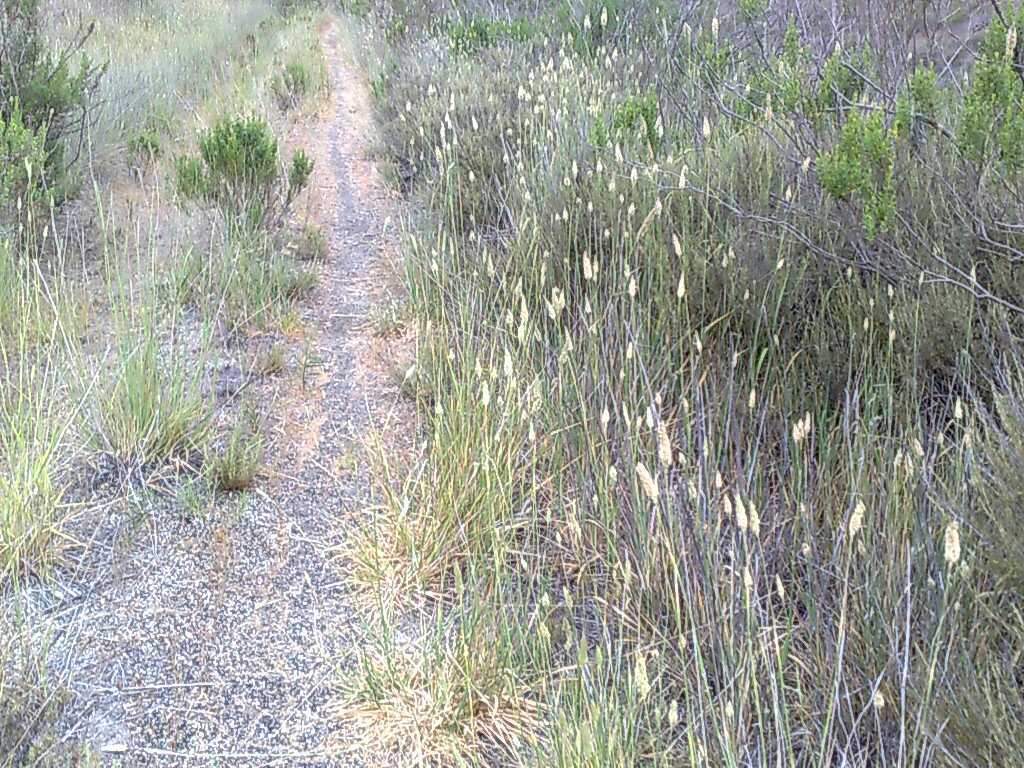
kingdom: Plantae
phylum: Tracheophyta
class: Liliopsida
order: Poales
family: Poaceae
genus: Phalaris
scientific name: Phalaris aquatica
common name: Bulbous canary-grass
